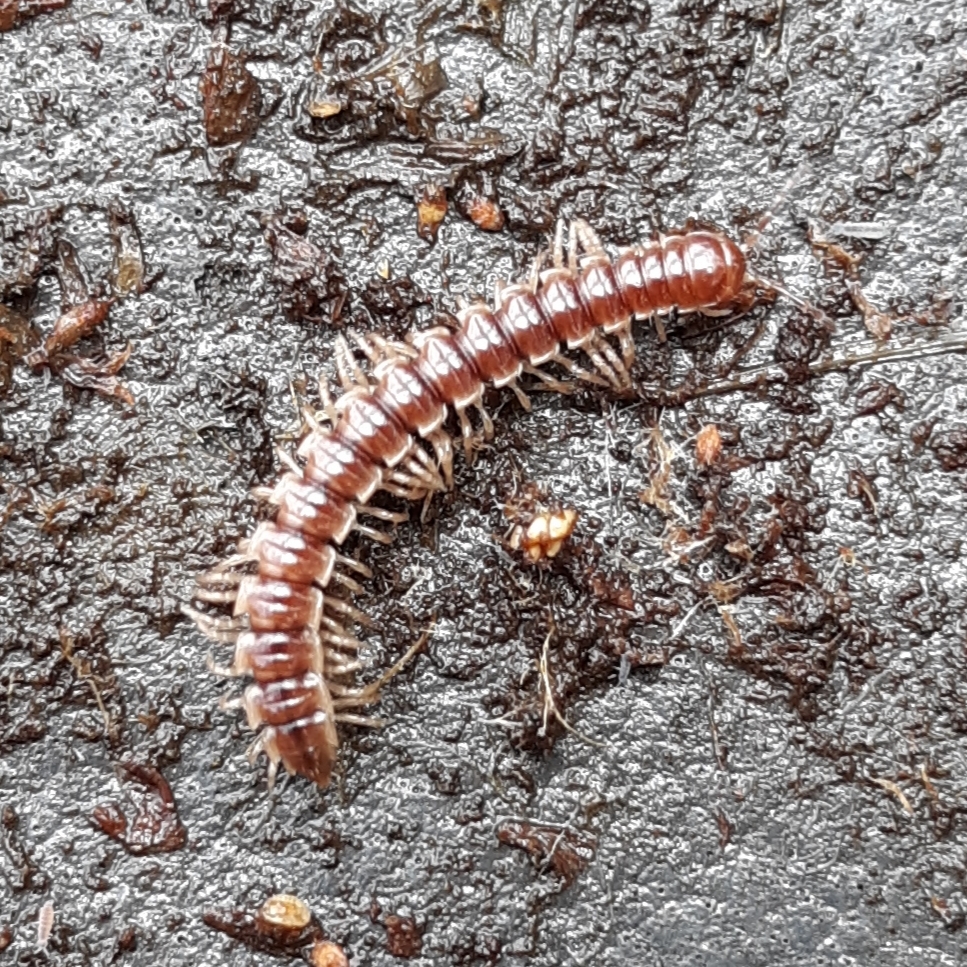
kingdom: Animalia
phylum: Arthropoda
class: Diplopoda
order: Polydesmida
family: Paradoxosomatidae
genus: Oxidus
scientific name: Oxidus gracilis
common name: Greenhouse millipede
